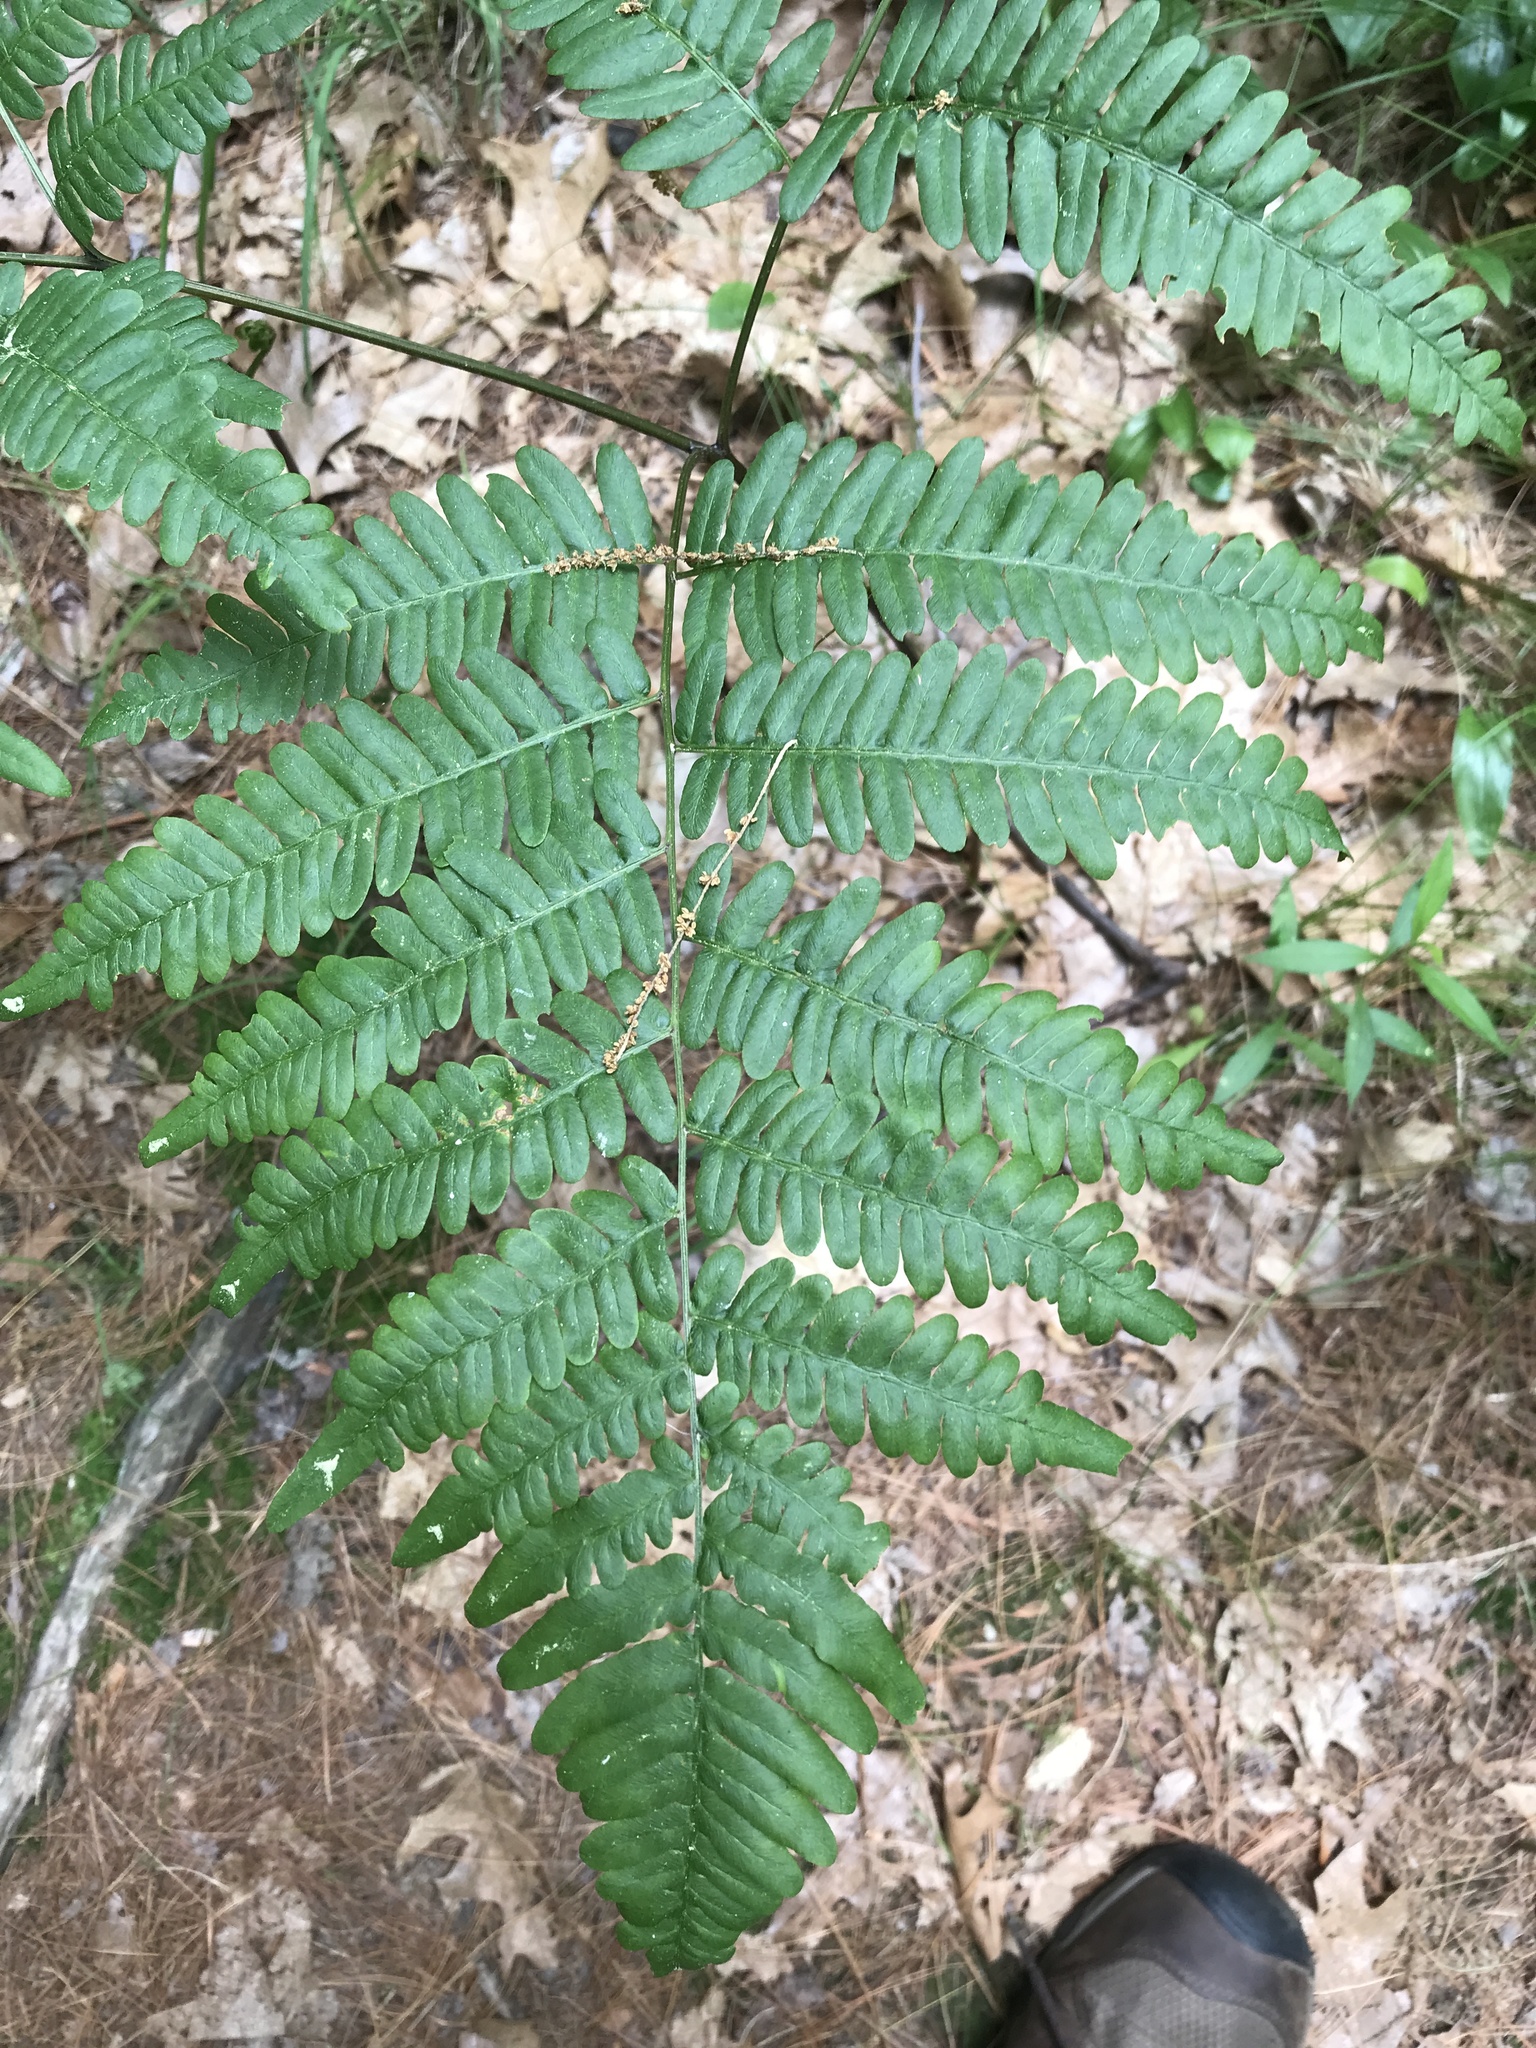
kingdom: Plantae
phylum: Tracheophyta
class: Polypodiopsida
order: Polypodiales
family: Dennstaedtiaceae
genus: Pteridium
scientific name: Pteridium aquilinum
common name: Bracken
